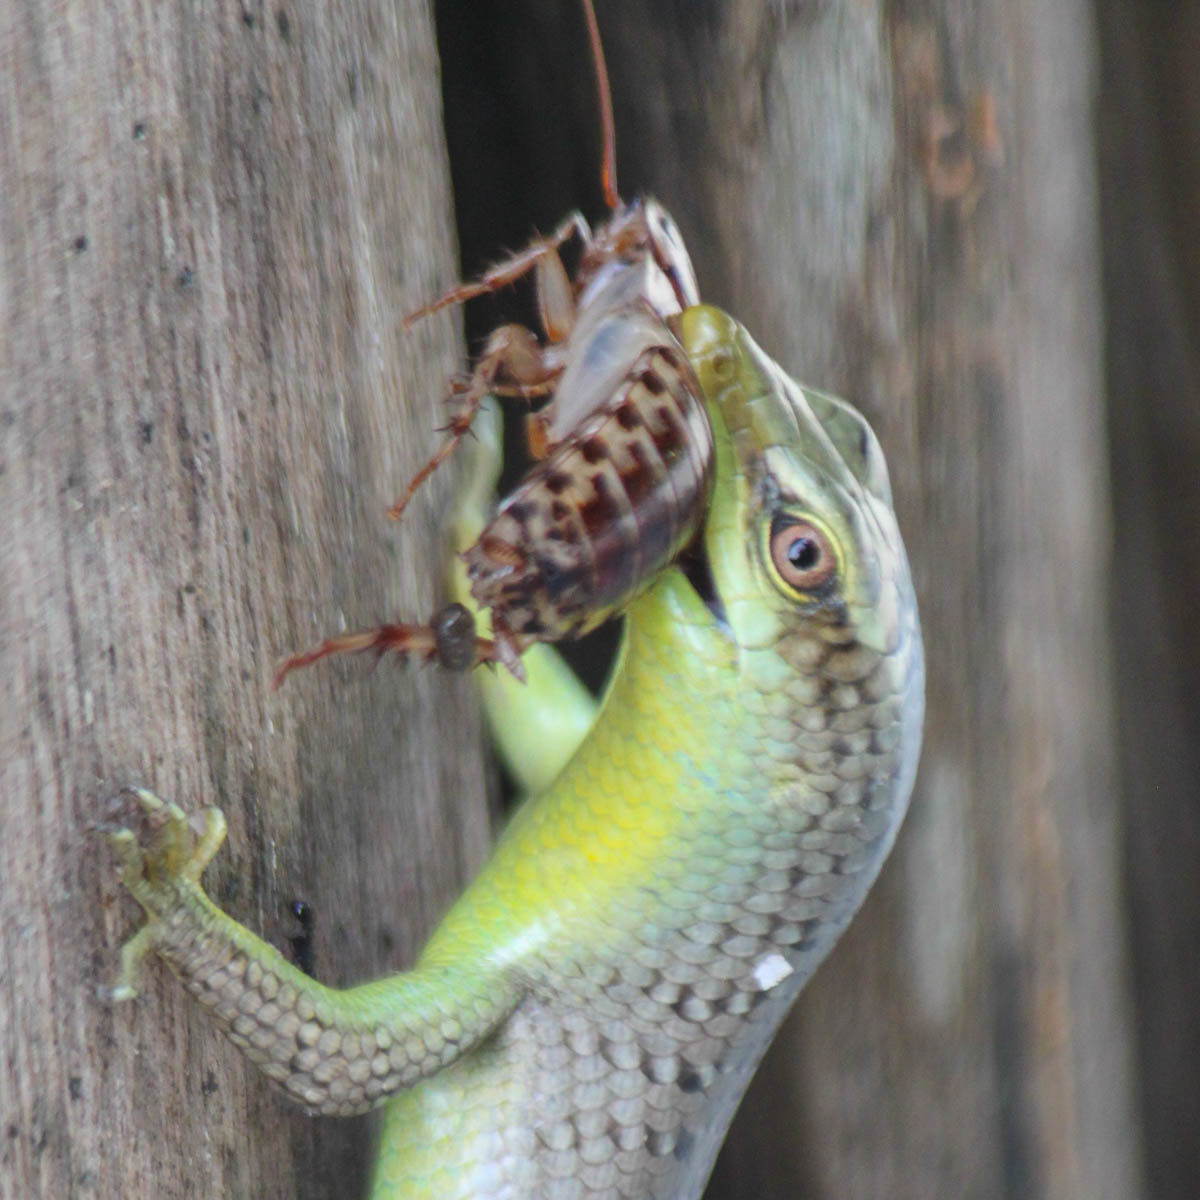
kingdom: Animalia
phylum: Chordata
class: Squamata
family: Scincidae
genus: Dasia
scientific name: Dasia olivacea
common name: Olive dasia
